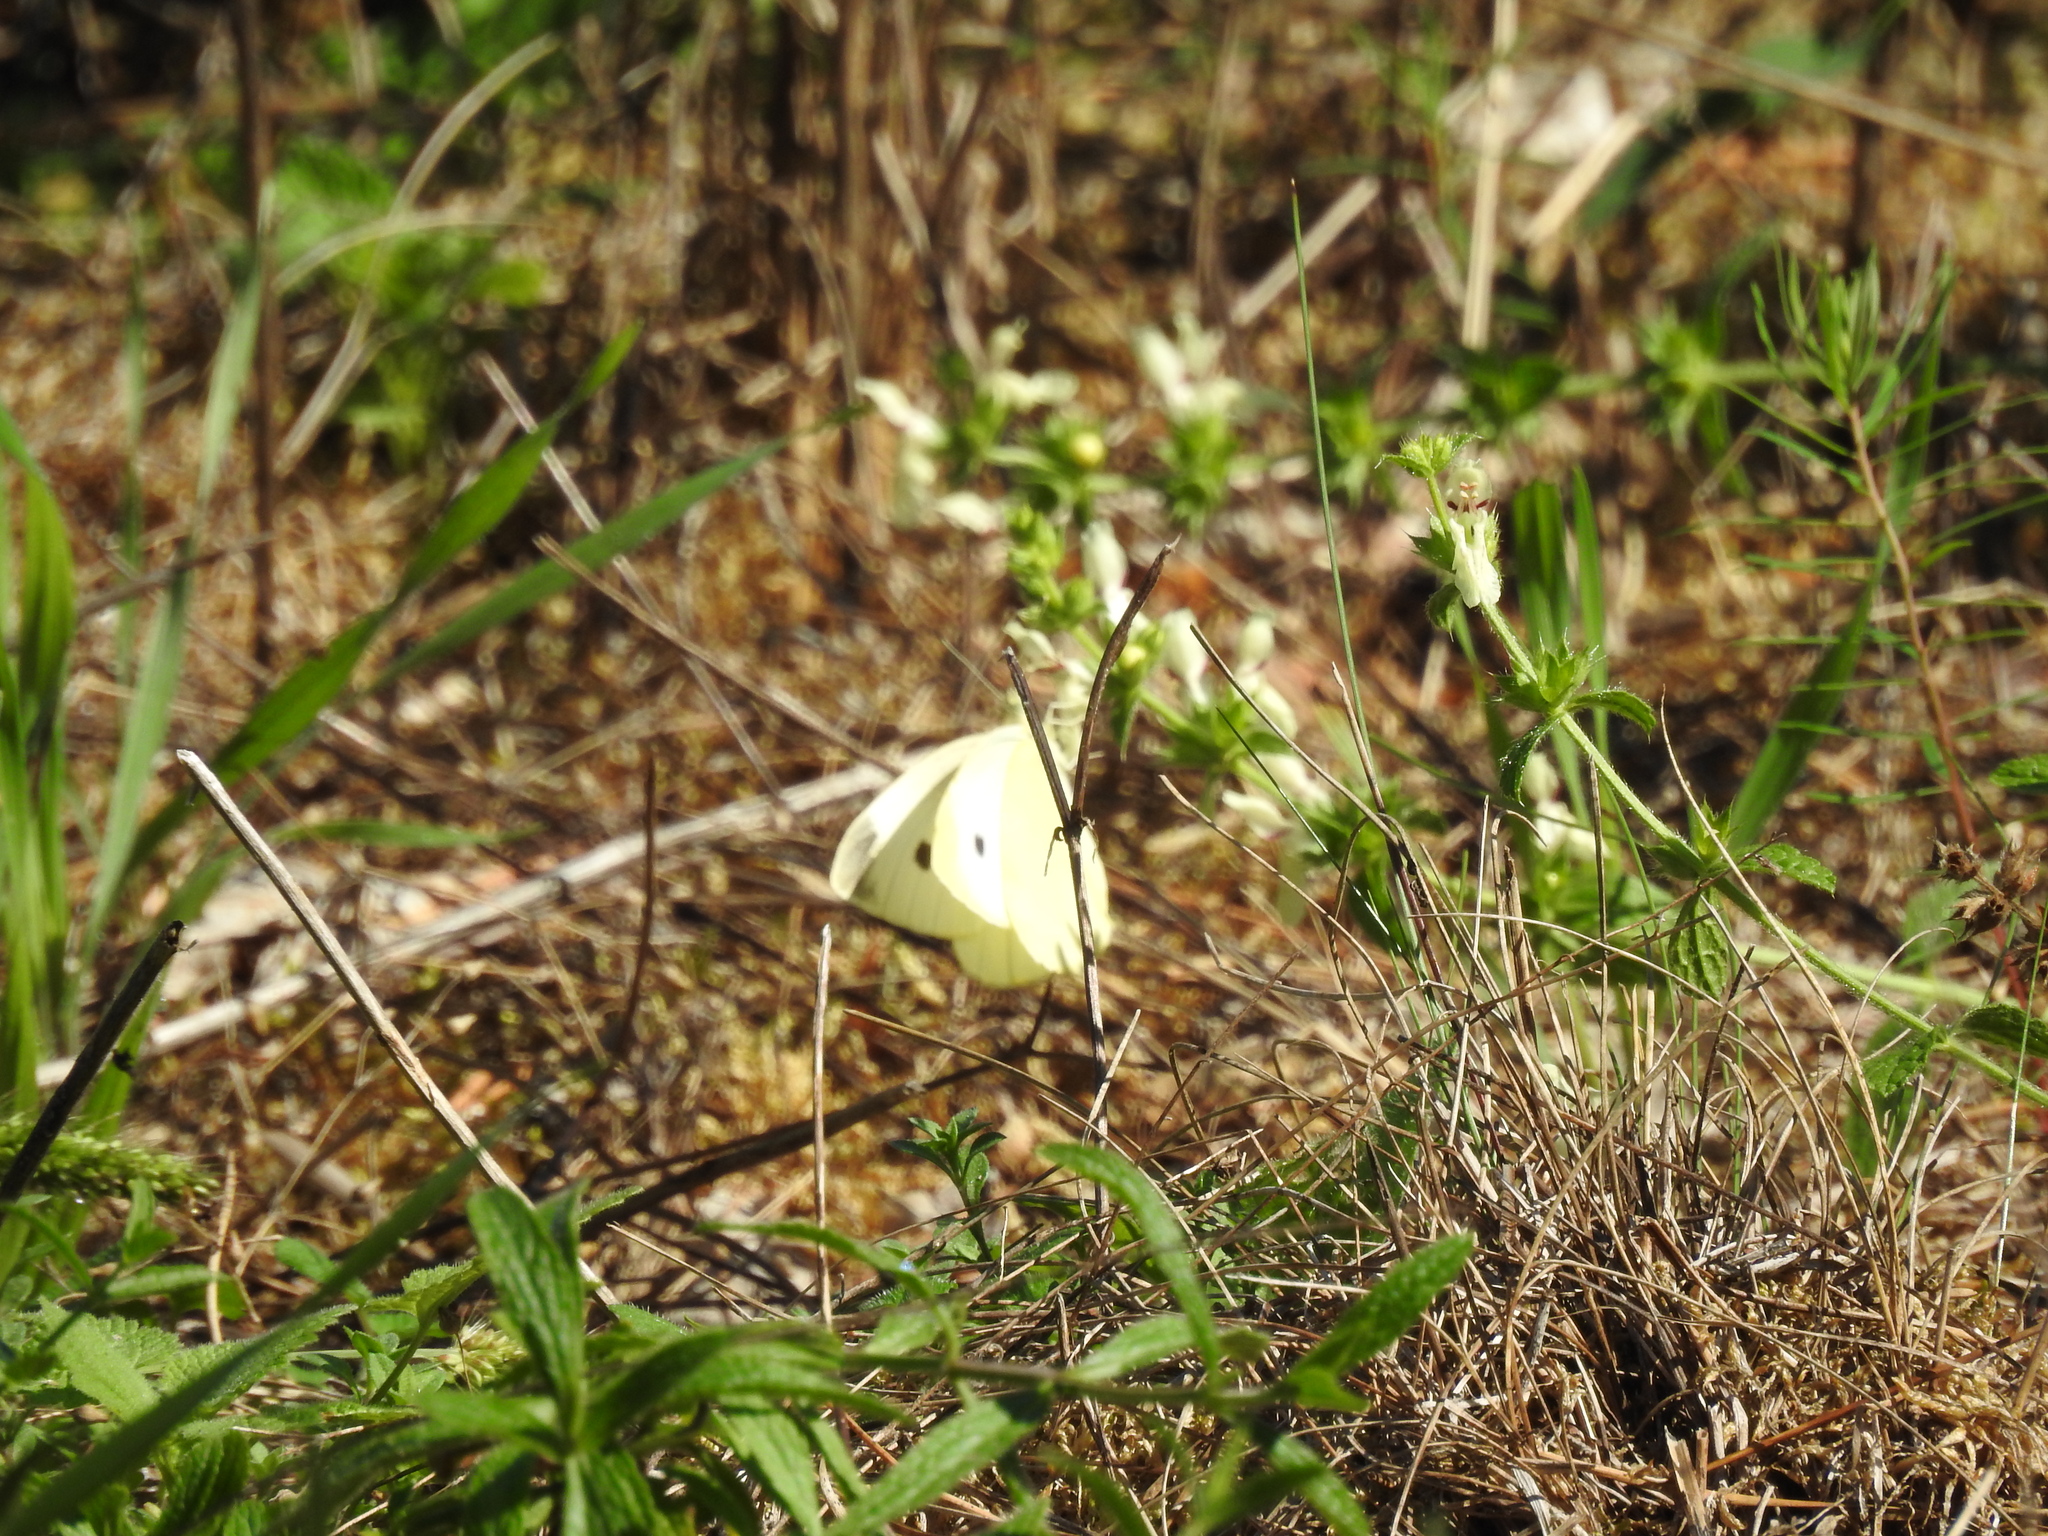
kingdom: Animalia
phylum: Arthropoda
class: Insecta
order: Lepidoptera
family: Pieridae
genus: Pieris
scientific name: Pieris rapae
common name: Small white
